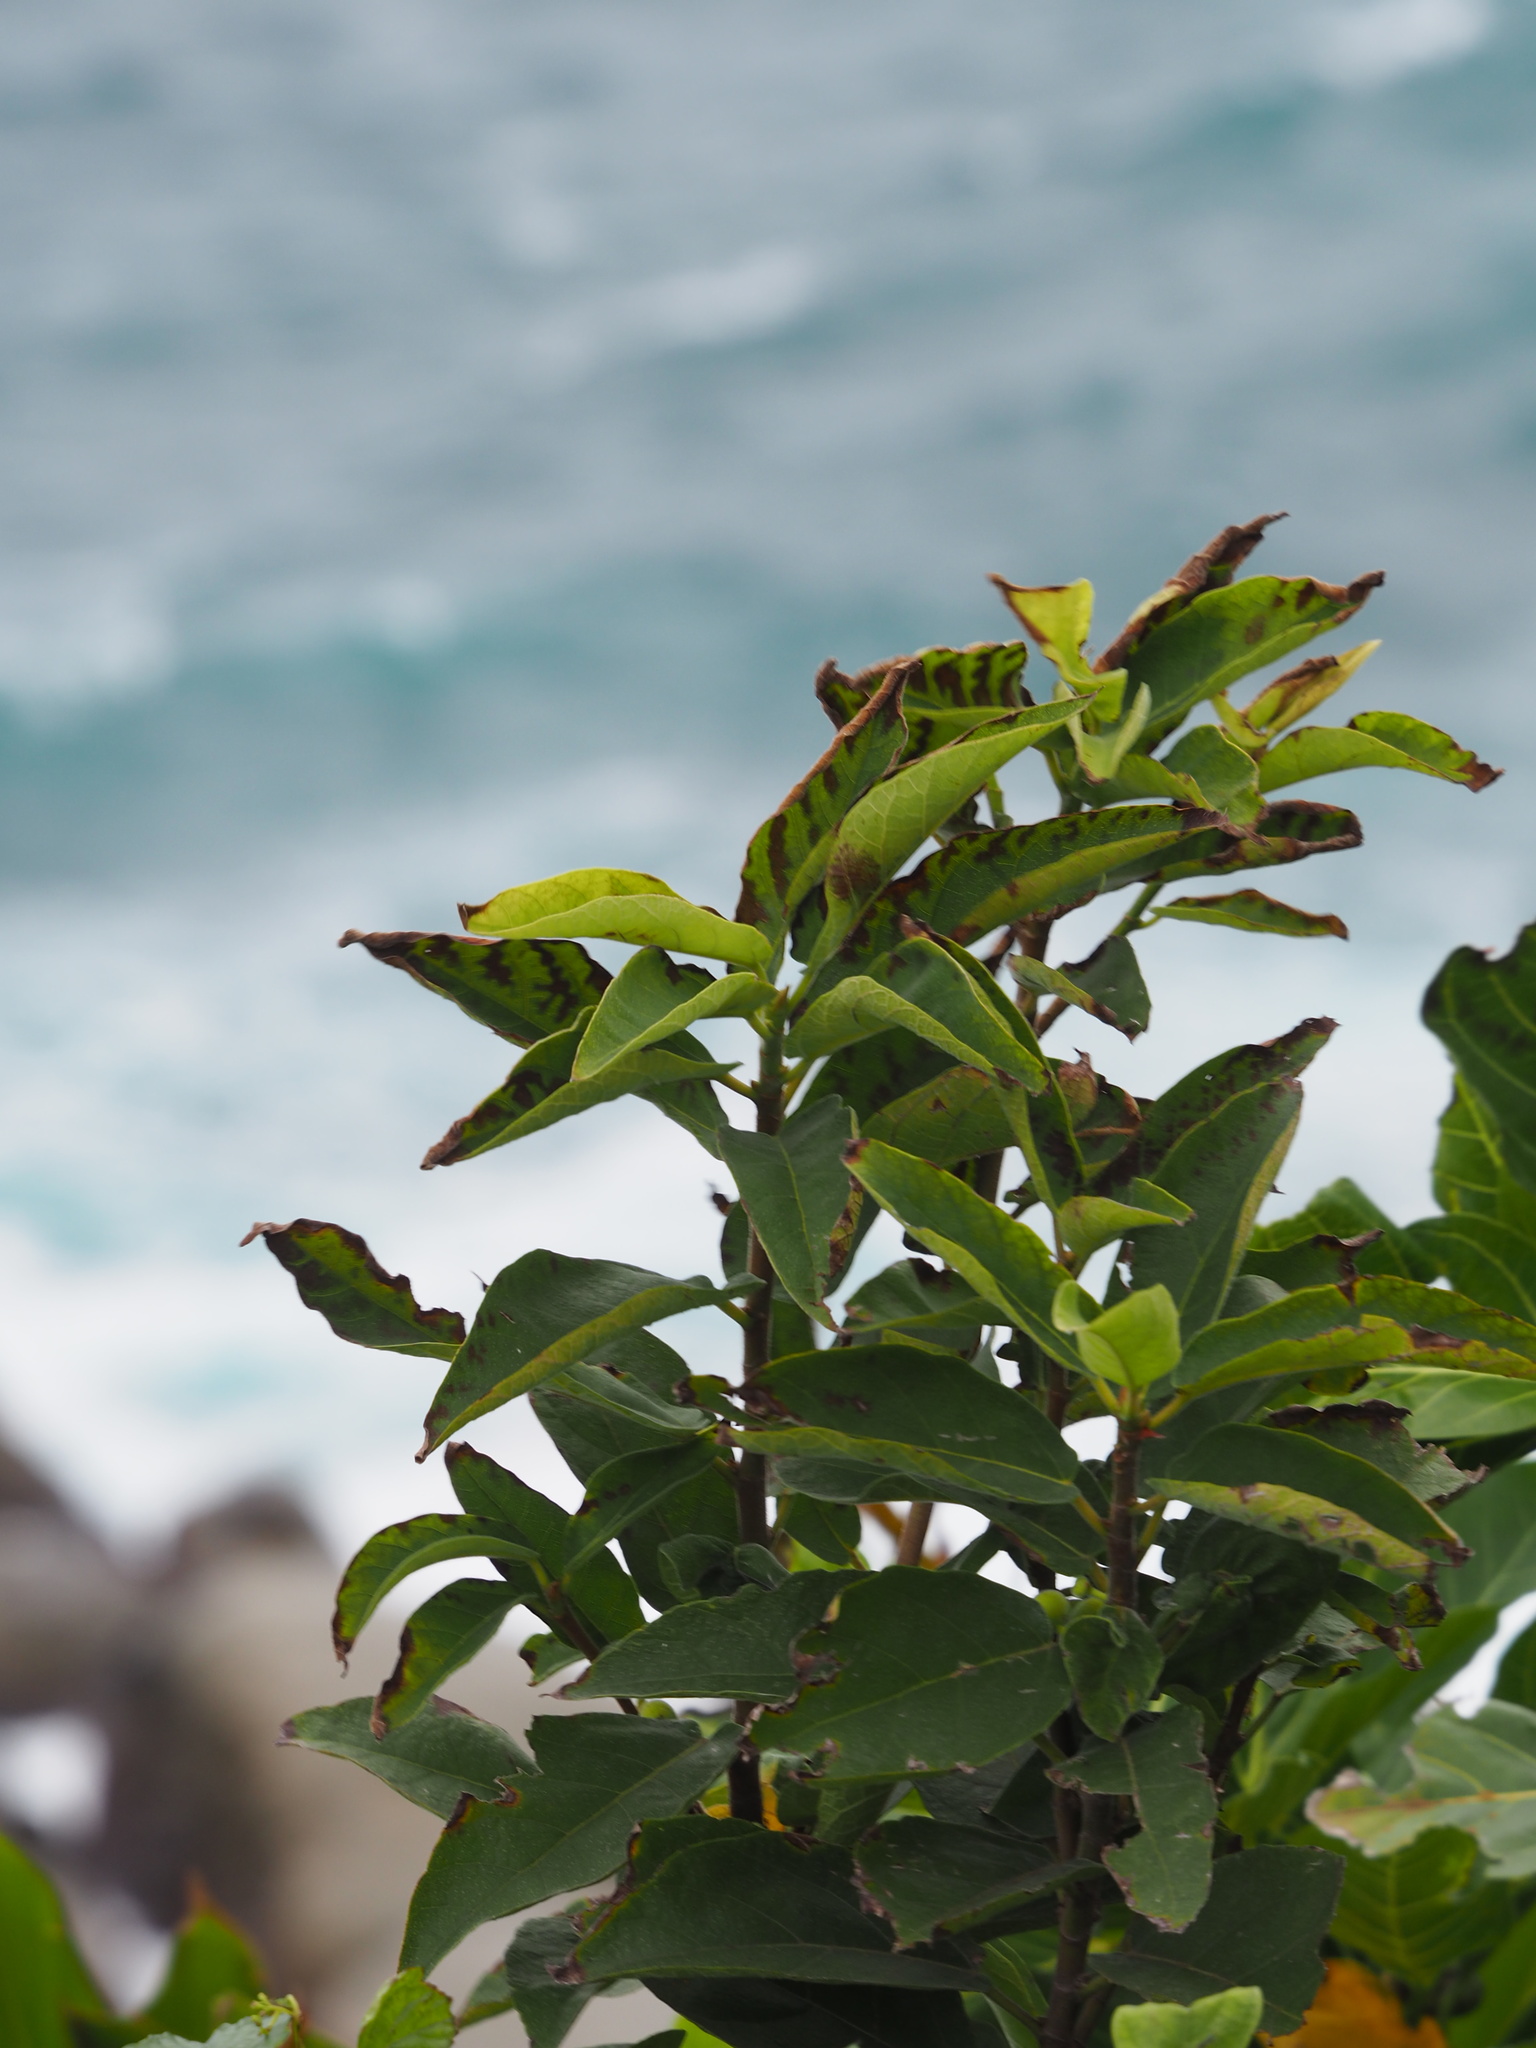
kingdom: Plantae
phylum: Tracheophyta
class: Magnoliopsida
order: Rosales
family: Moraceae
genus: Ficus
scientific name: Ficus erecta
